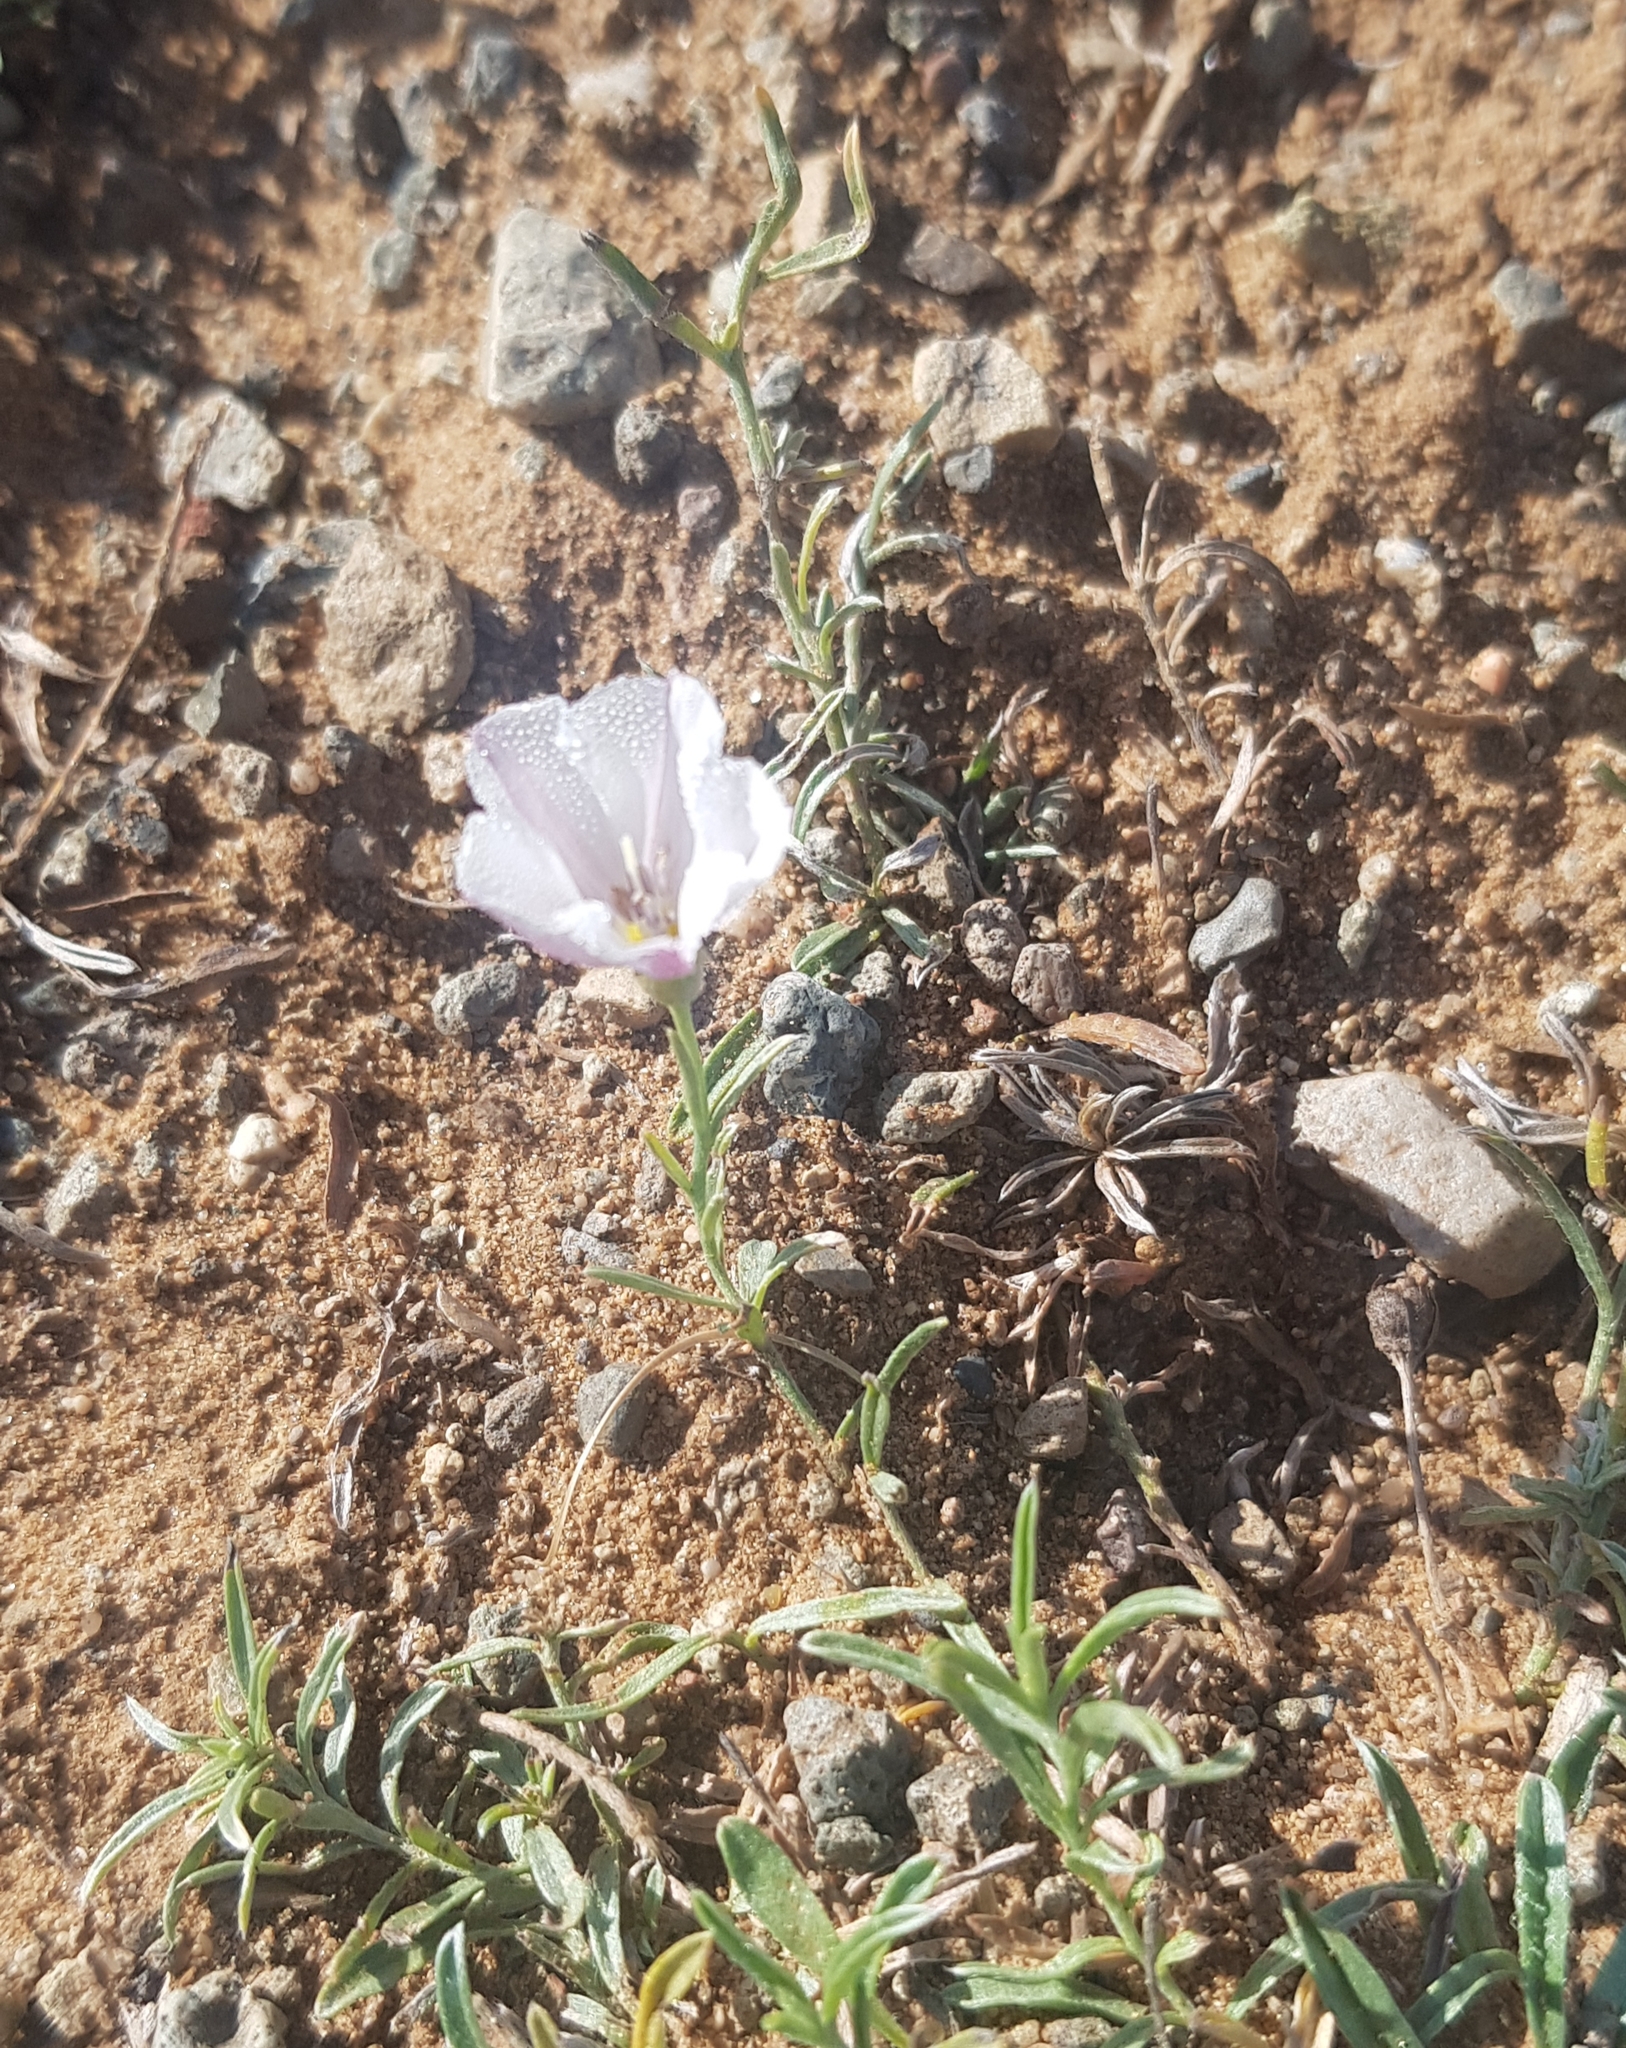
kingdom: Plantae
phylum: Tracheophyta
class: Magnoliopsida
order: Solanales
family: Convolvulaceae
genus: Convolvulus
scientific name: Convolvulus ammannii
